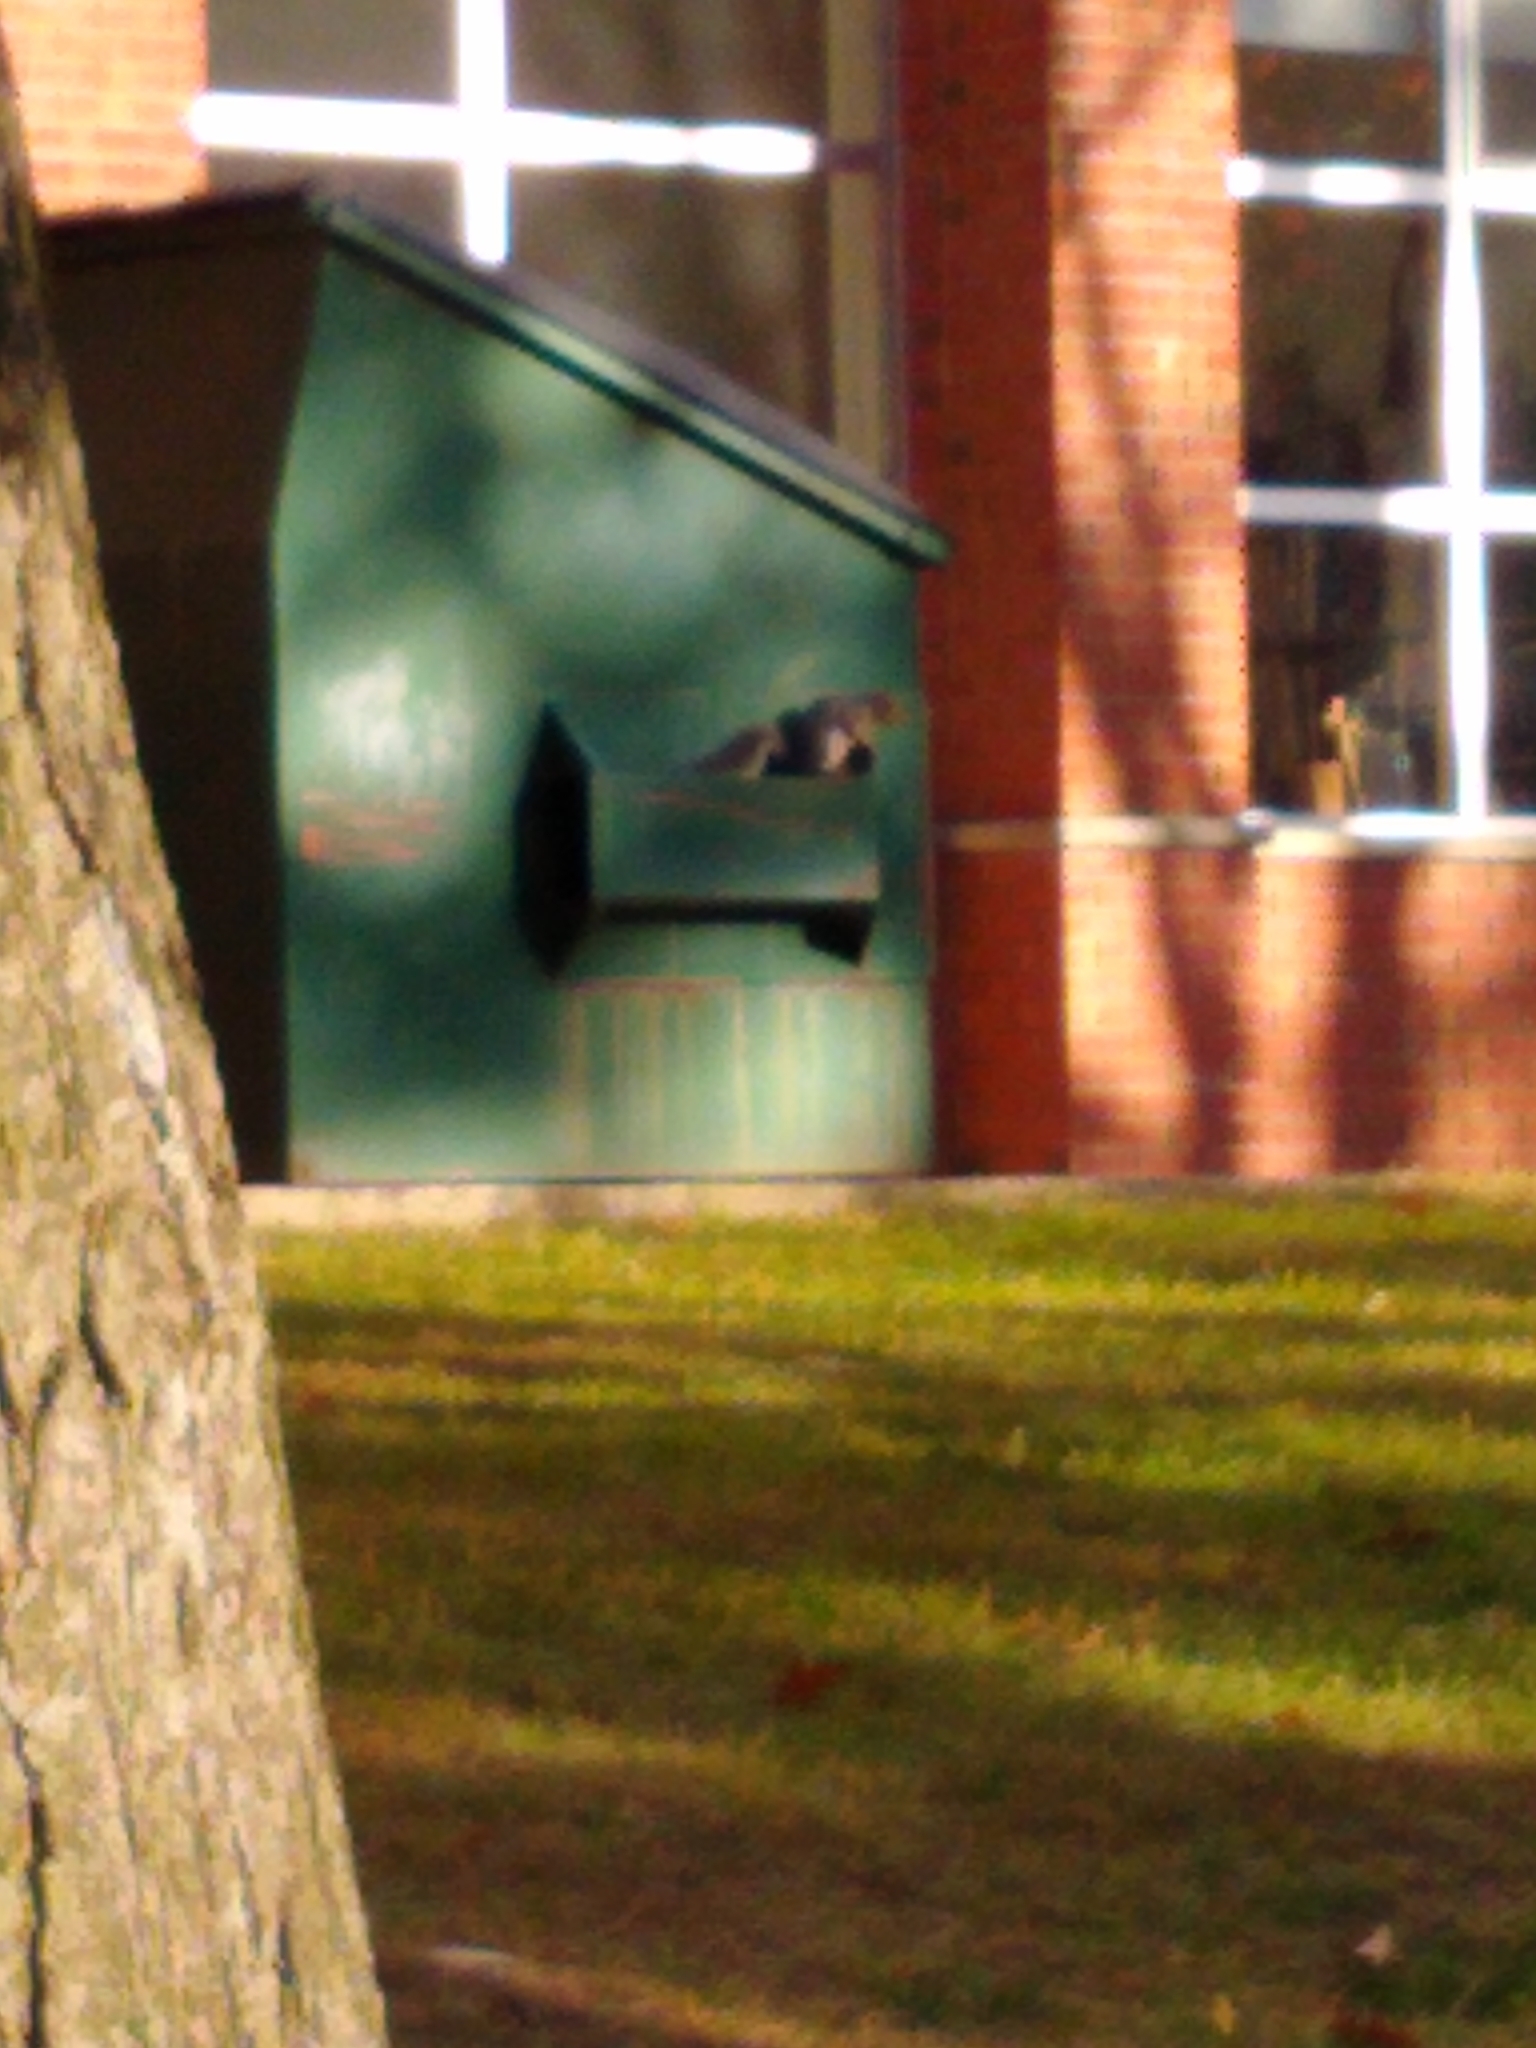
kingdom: Animalia
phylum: Chordata
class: Mammalia
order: Rodentia
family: Sciuridae
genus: Sciurus
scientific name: Sciurus carolinensis
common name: Eastern gray squirrel
